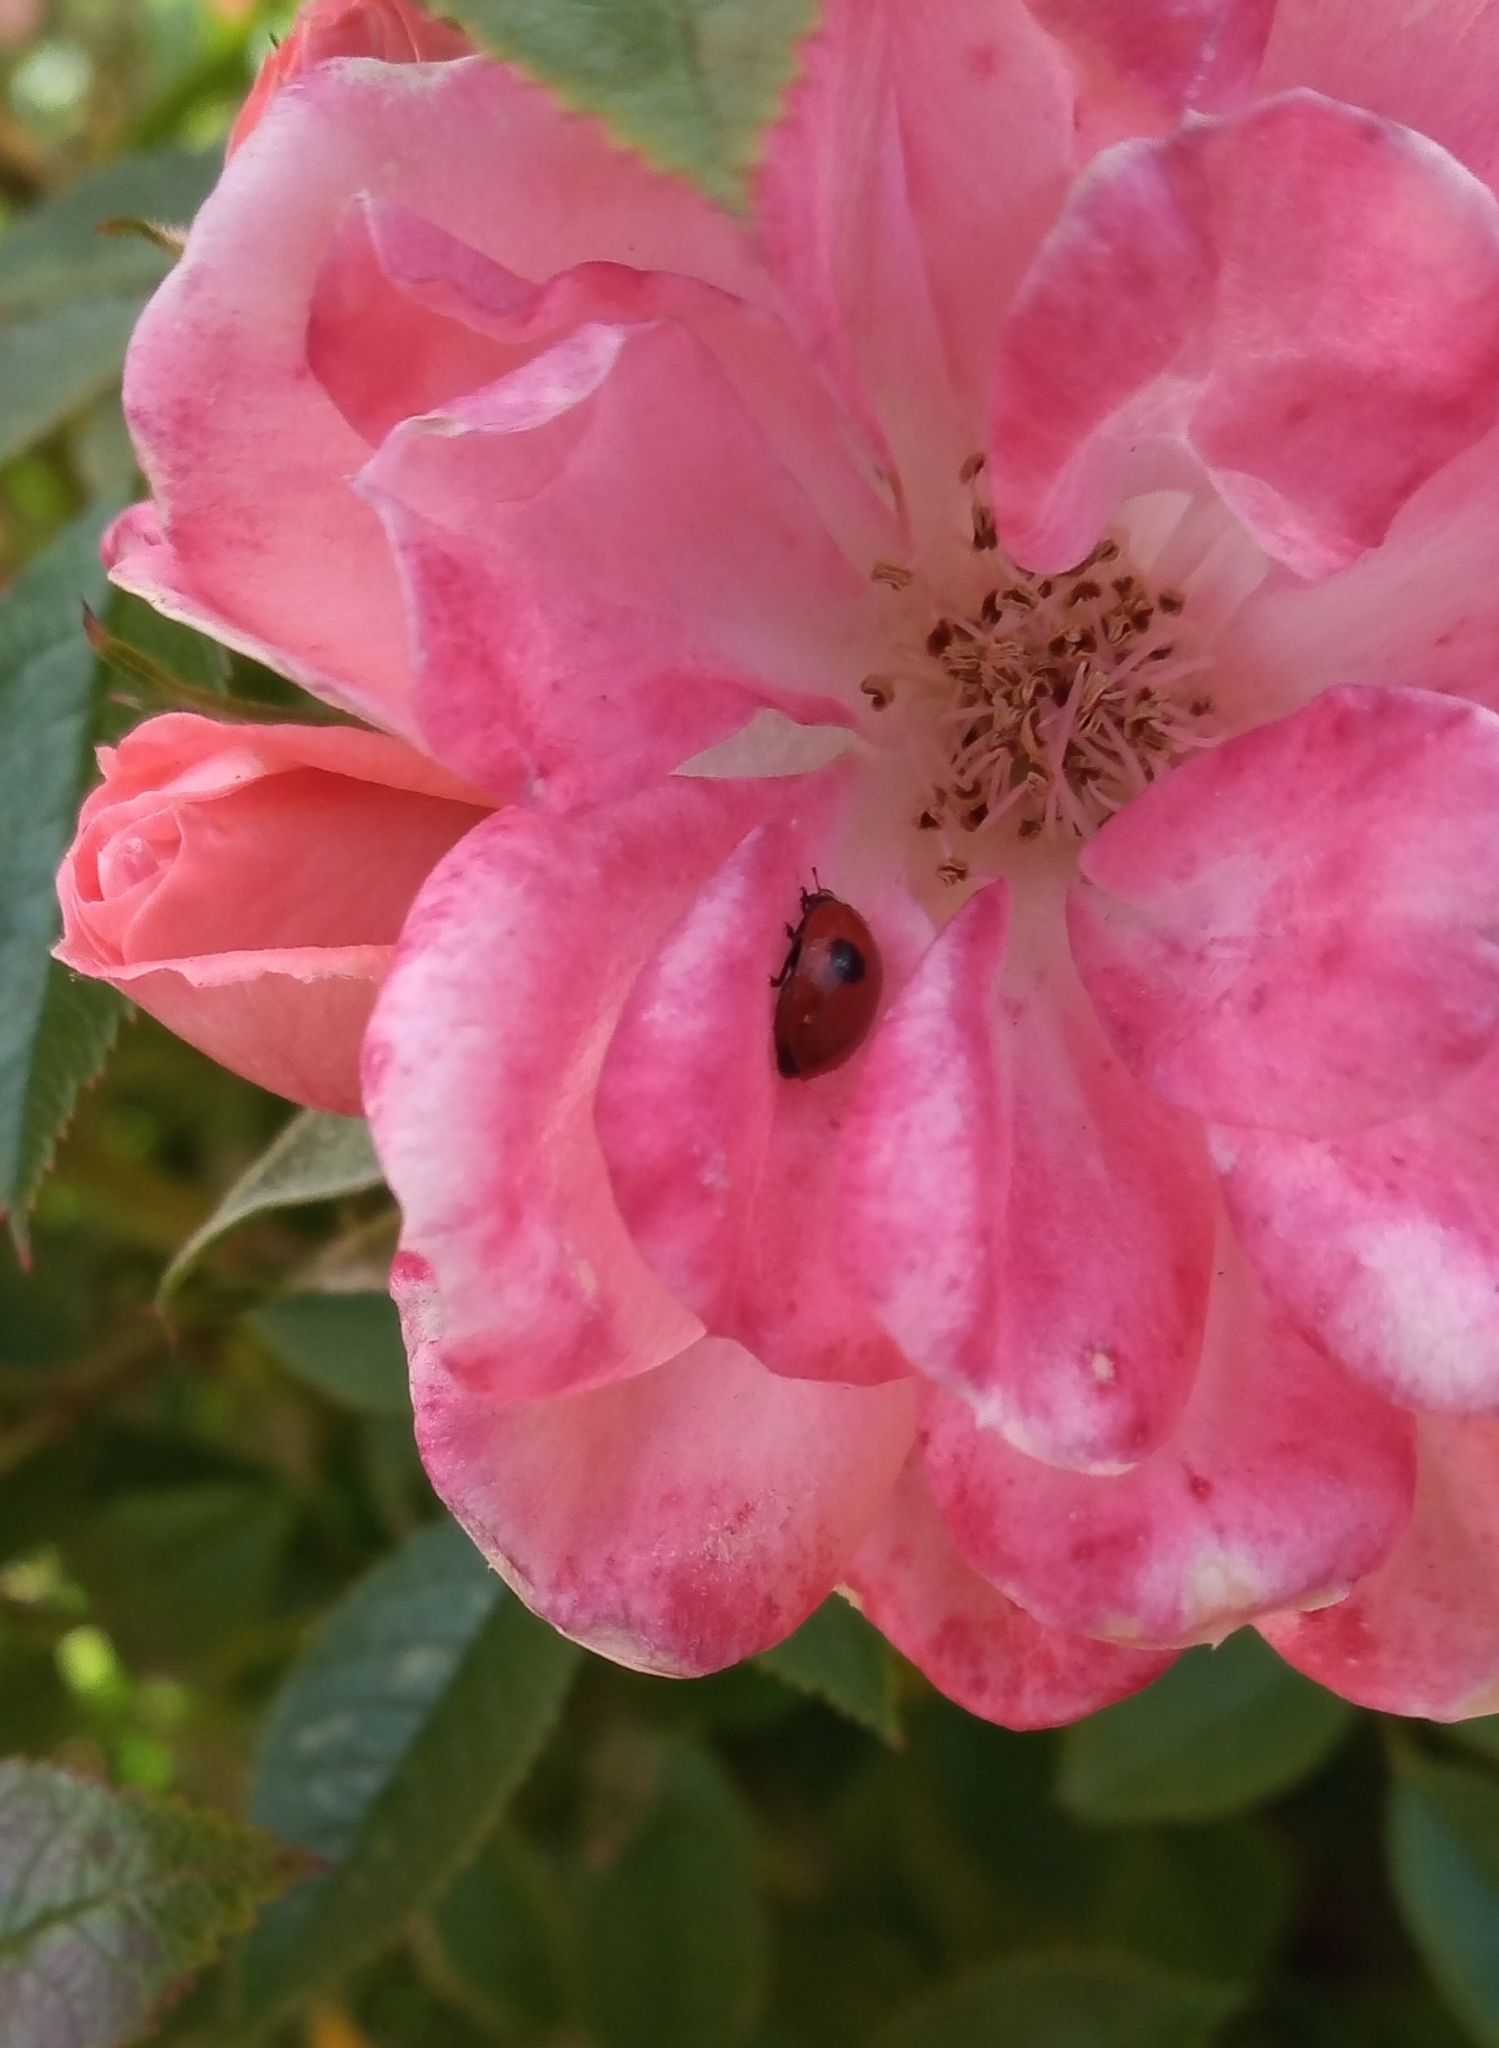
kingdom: Animalia
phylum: Arthropoda
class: Insecta
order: Coleoptera
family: Coccinellidae
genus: Adalia
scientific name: Adalia bipunctata
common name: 2-spot ladybird
